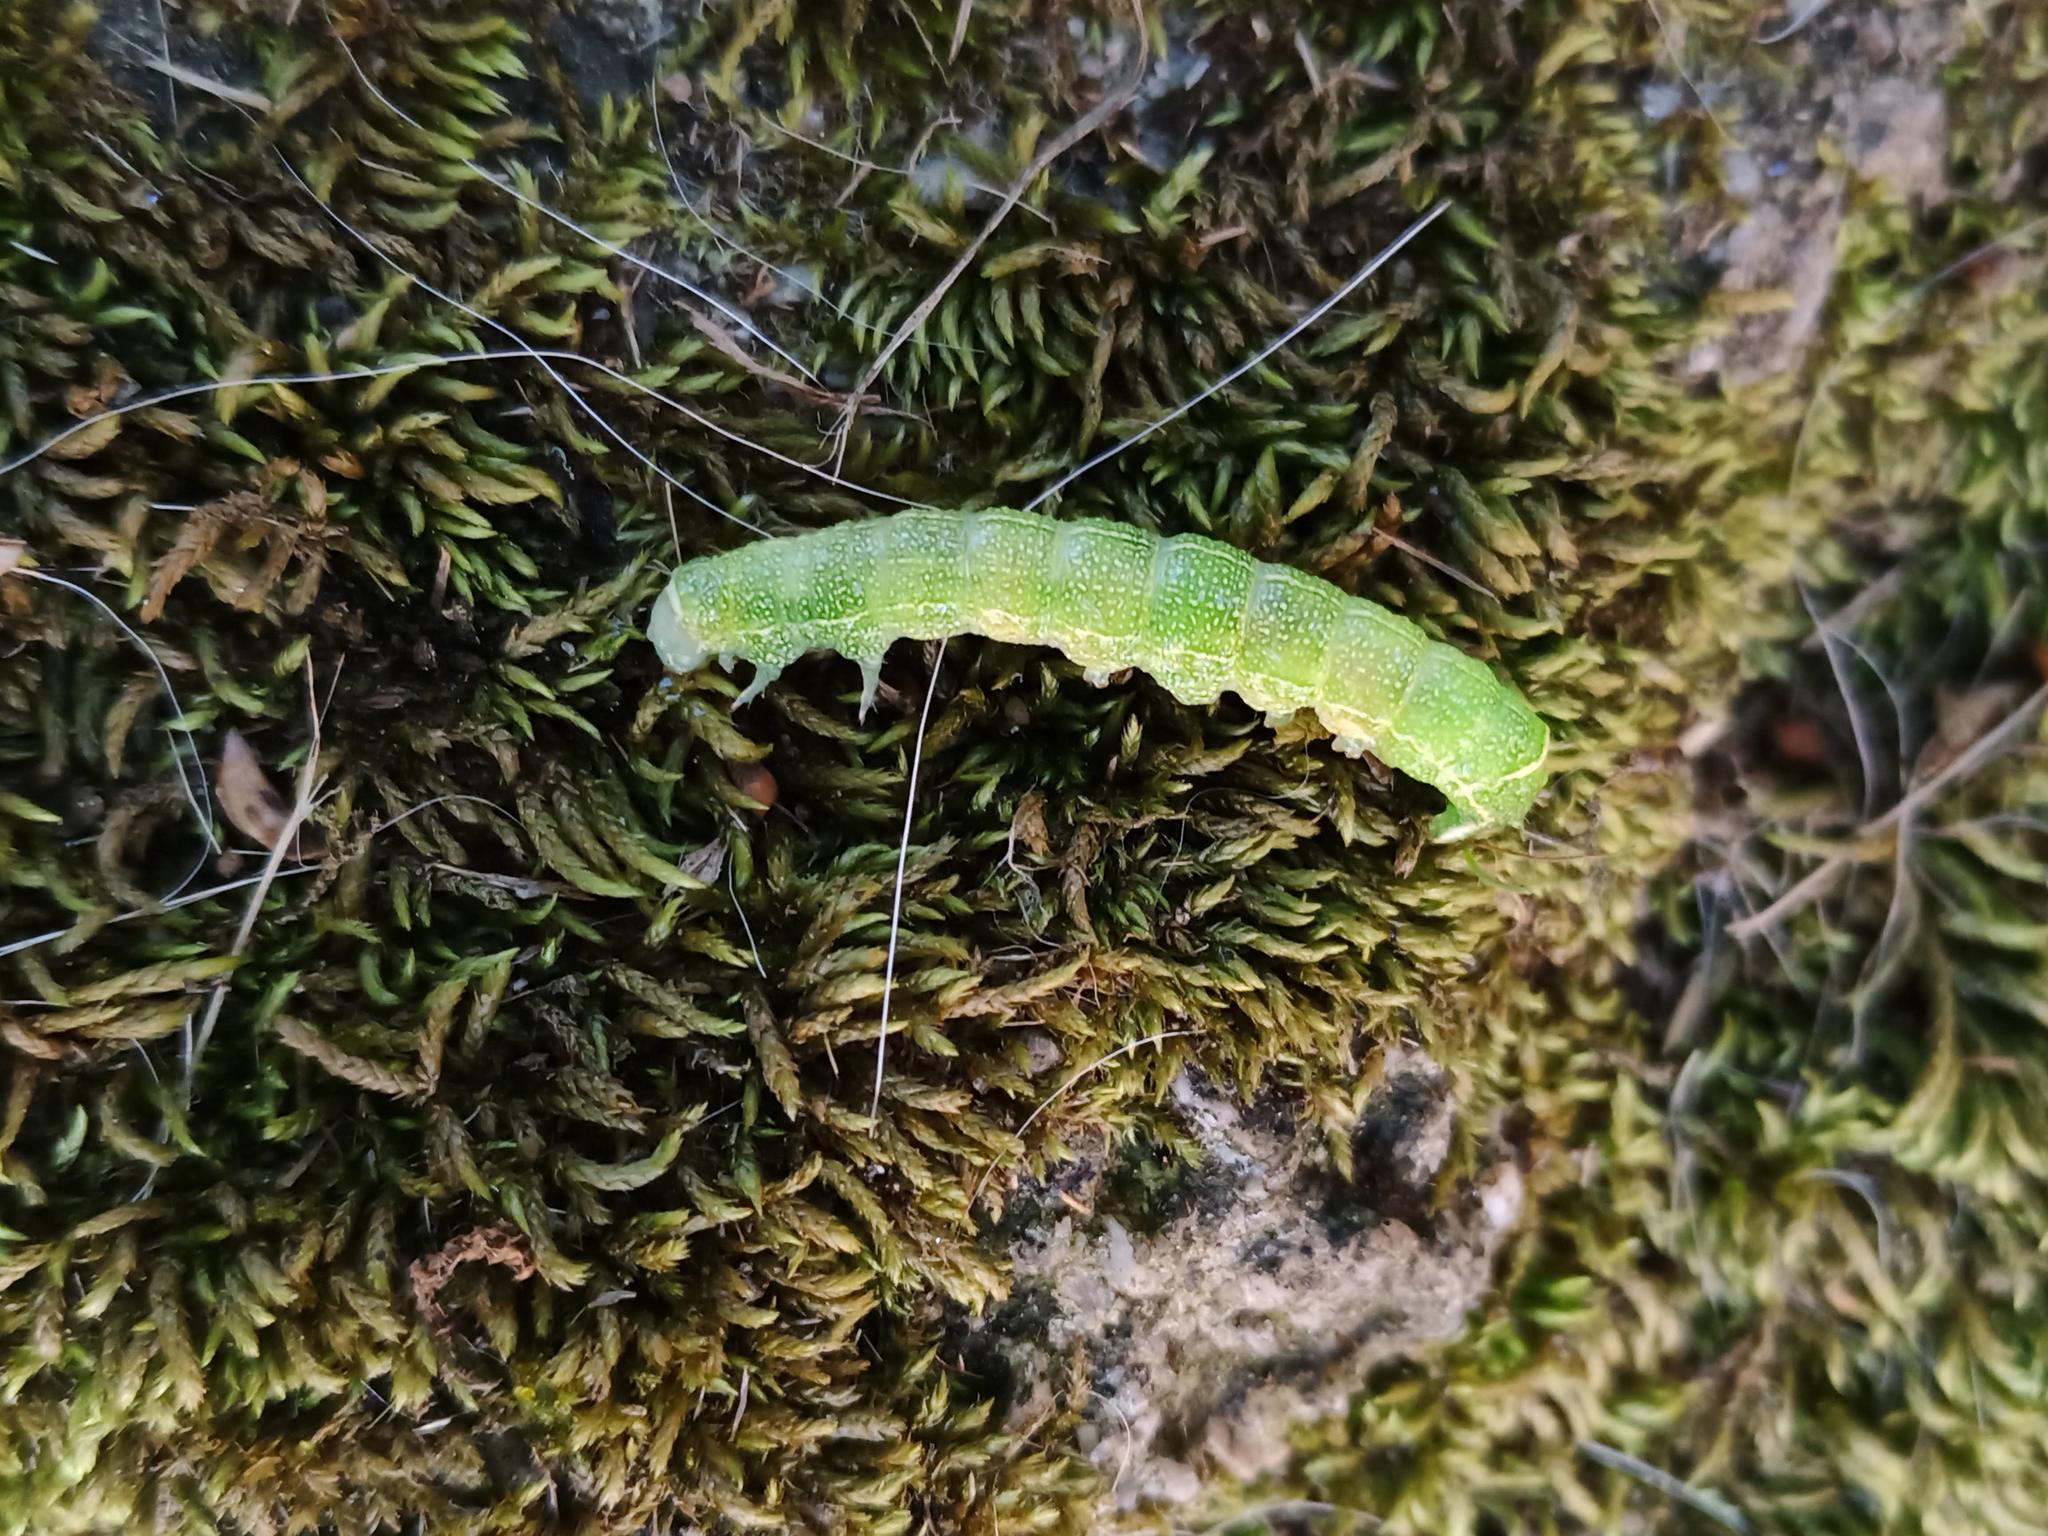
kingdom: Animalia
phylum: Arthropoda
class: Insecta
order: Lepidoptera
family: Noctuidae
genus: Orthosia
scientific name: Orthosia cerasi
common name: Common quaker
